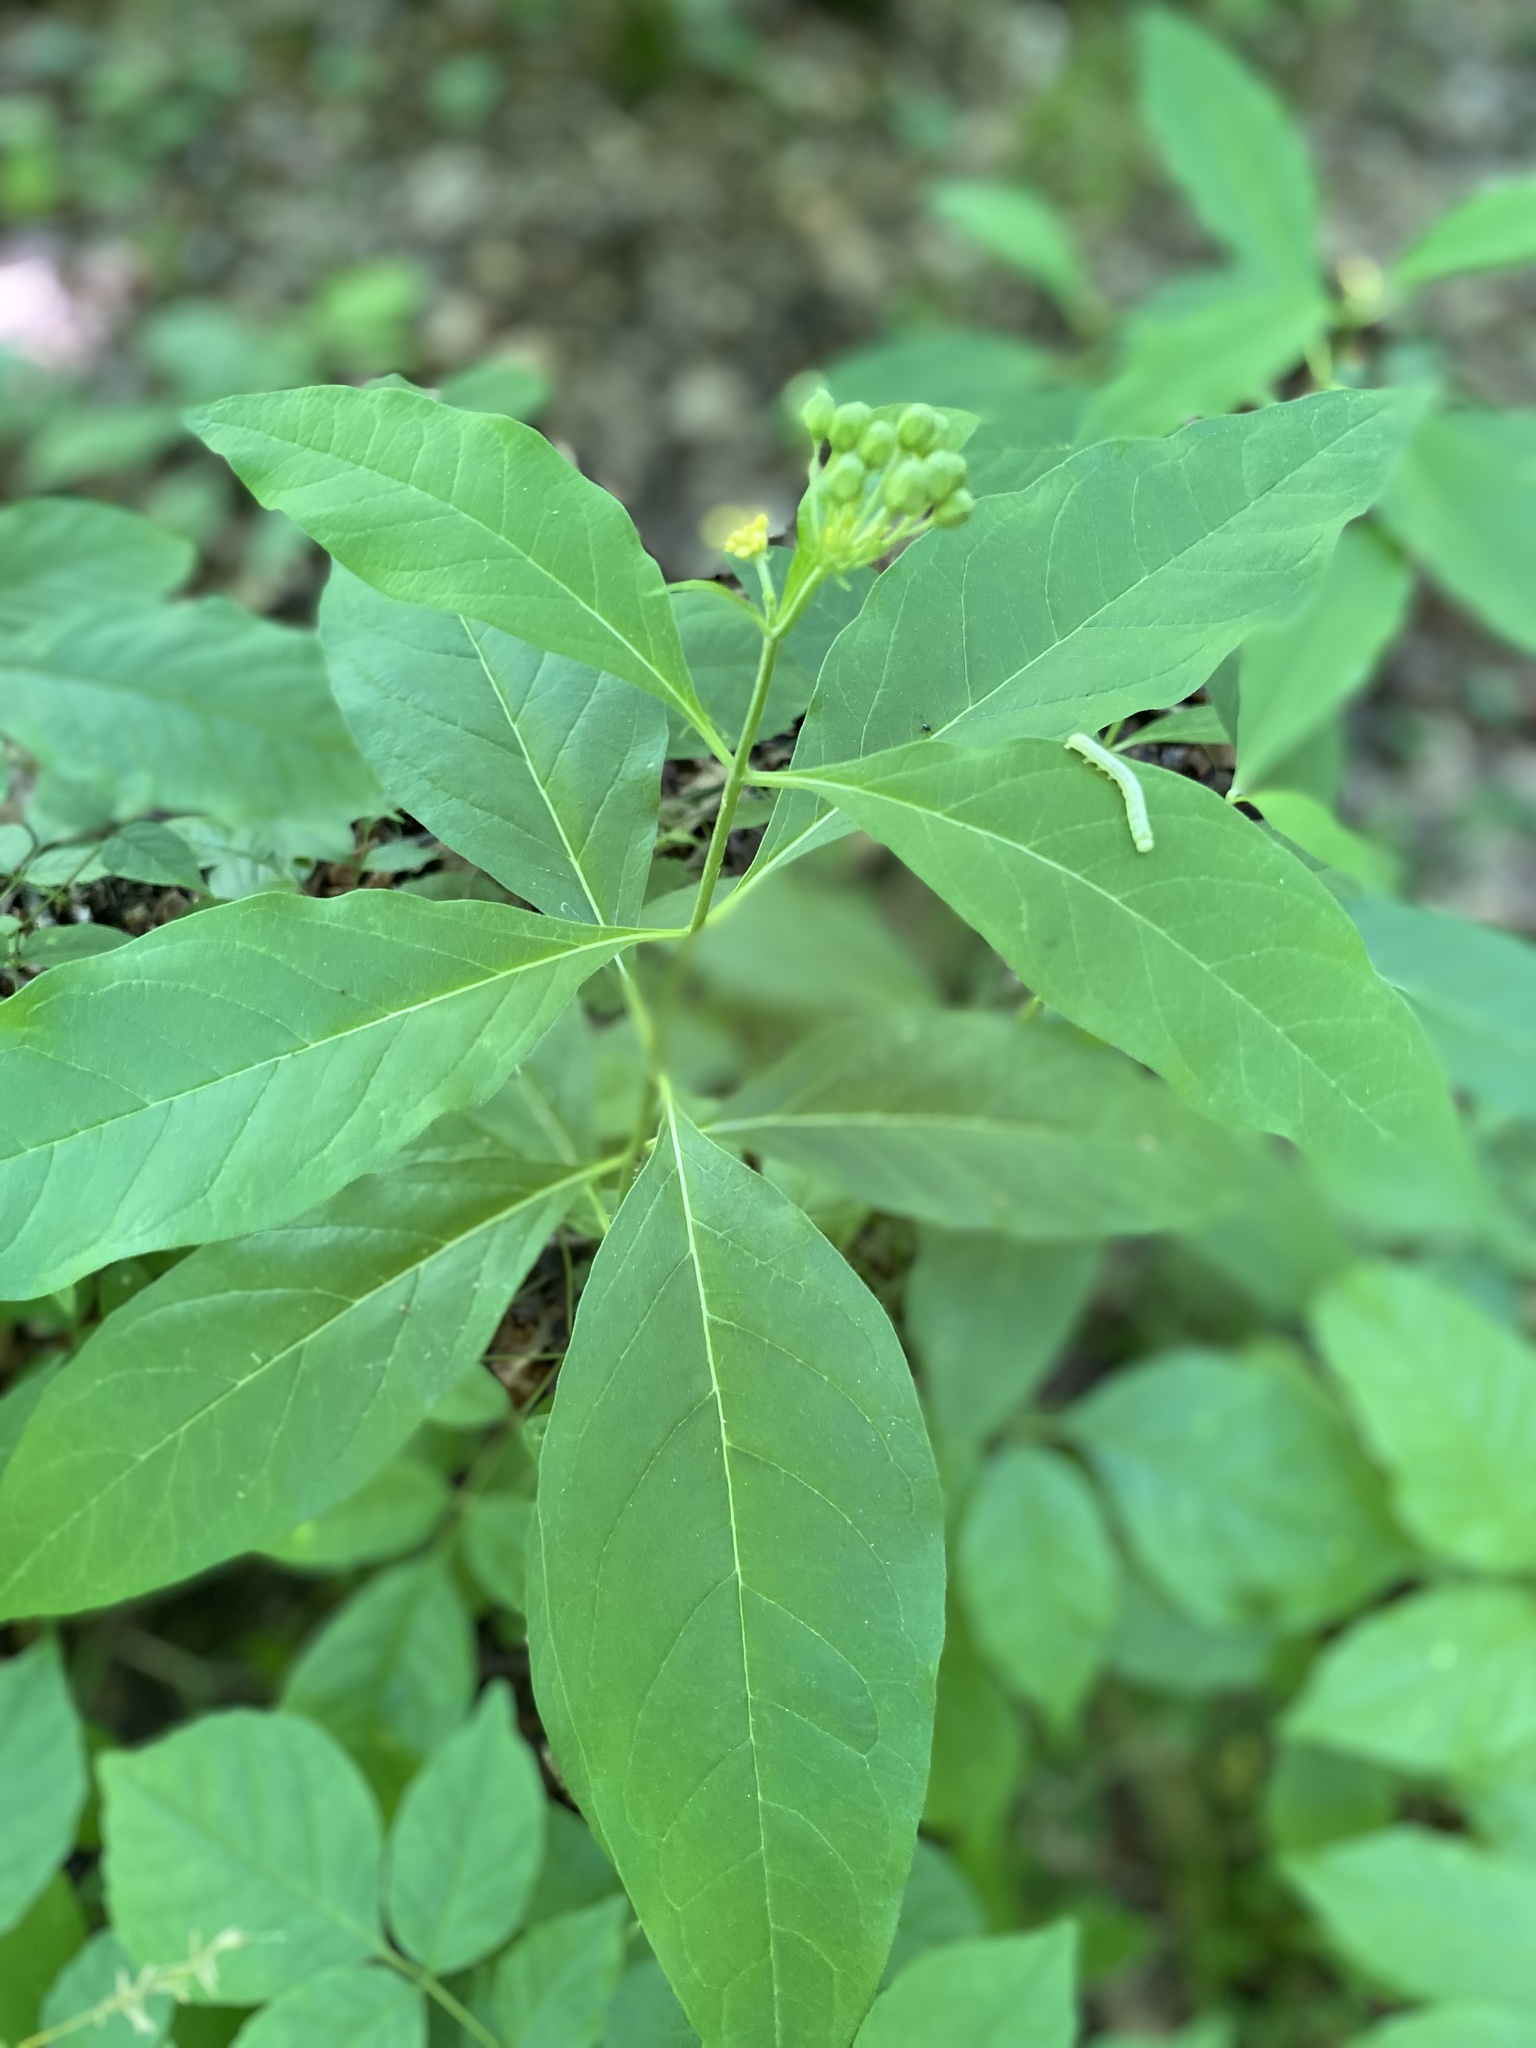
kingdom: Plantae
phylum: Tracheophyta
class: Magnoliopsida
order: Gentianales
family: Apocynaceae
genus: Asclepias
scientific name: Asclepias exaltata
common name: Poke milkweed
